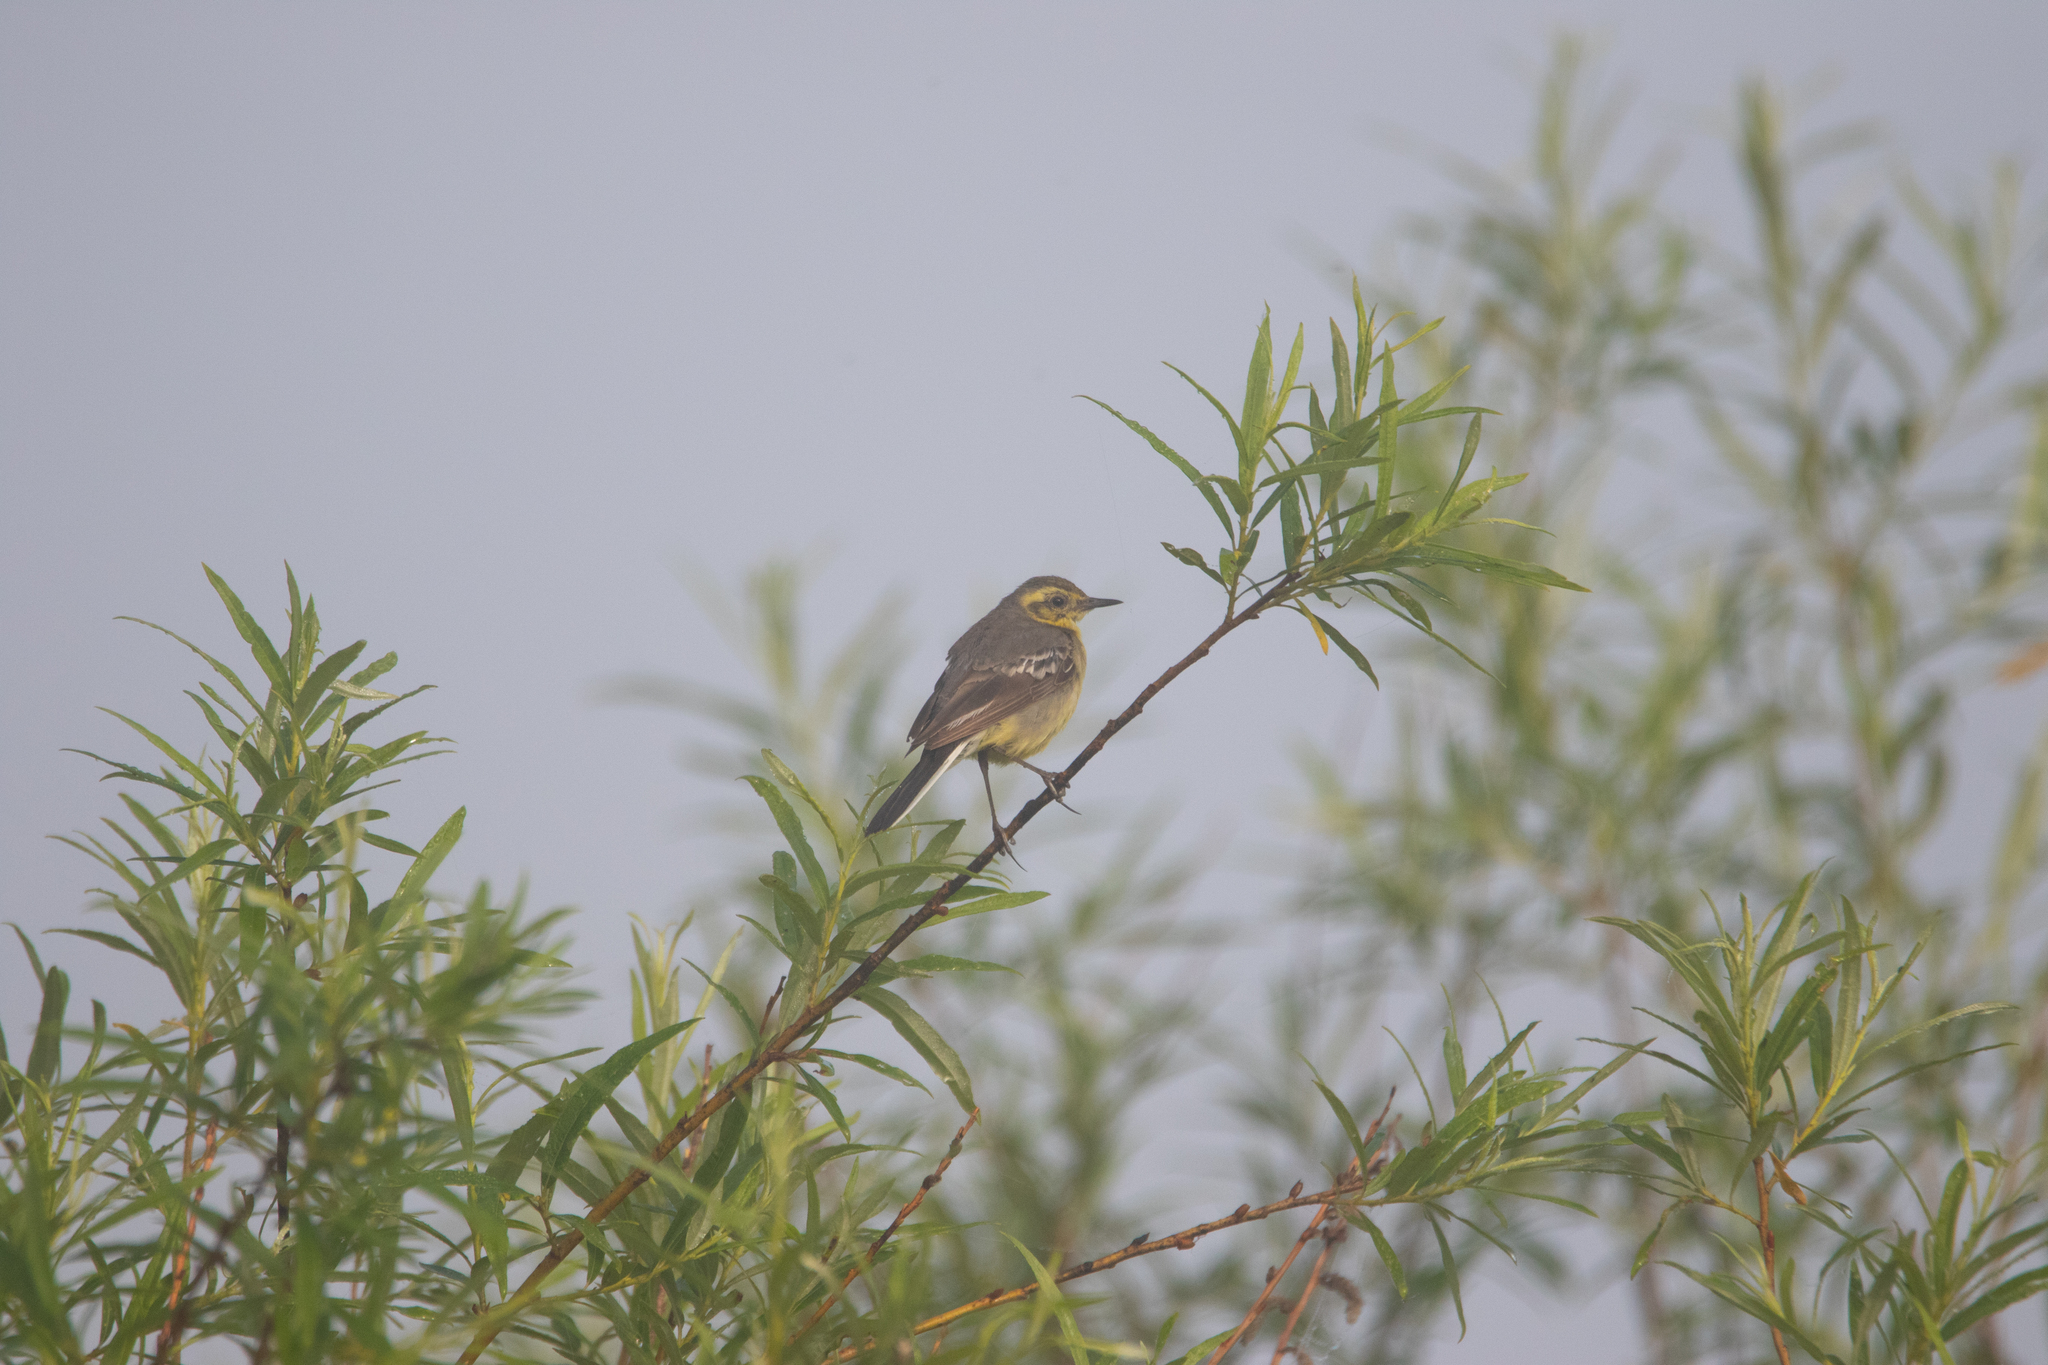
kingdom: Animalia
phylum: Chordata
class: Aves
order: Passeriformes
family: Motacillidae
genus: Motacilla
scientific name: Motacilla citreola
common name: Citrine wagtail
